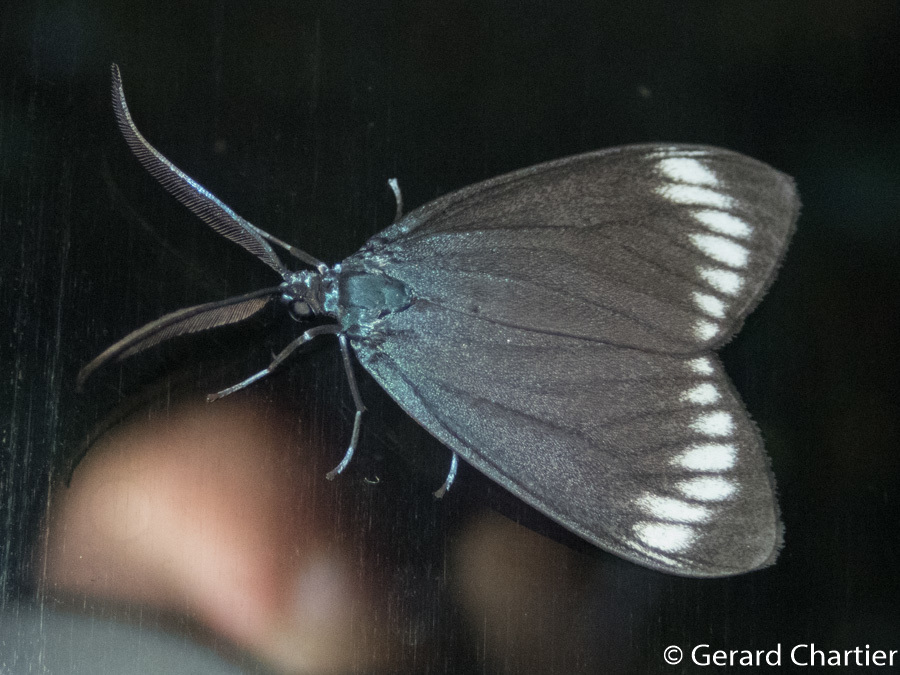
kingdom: Animalia
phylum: Arthropoda
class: Insecta
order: Lepidoptera
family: Zygaenidae
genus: Cyclosia
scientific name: Cyclosia panthona
